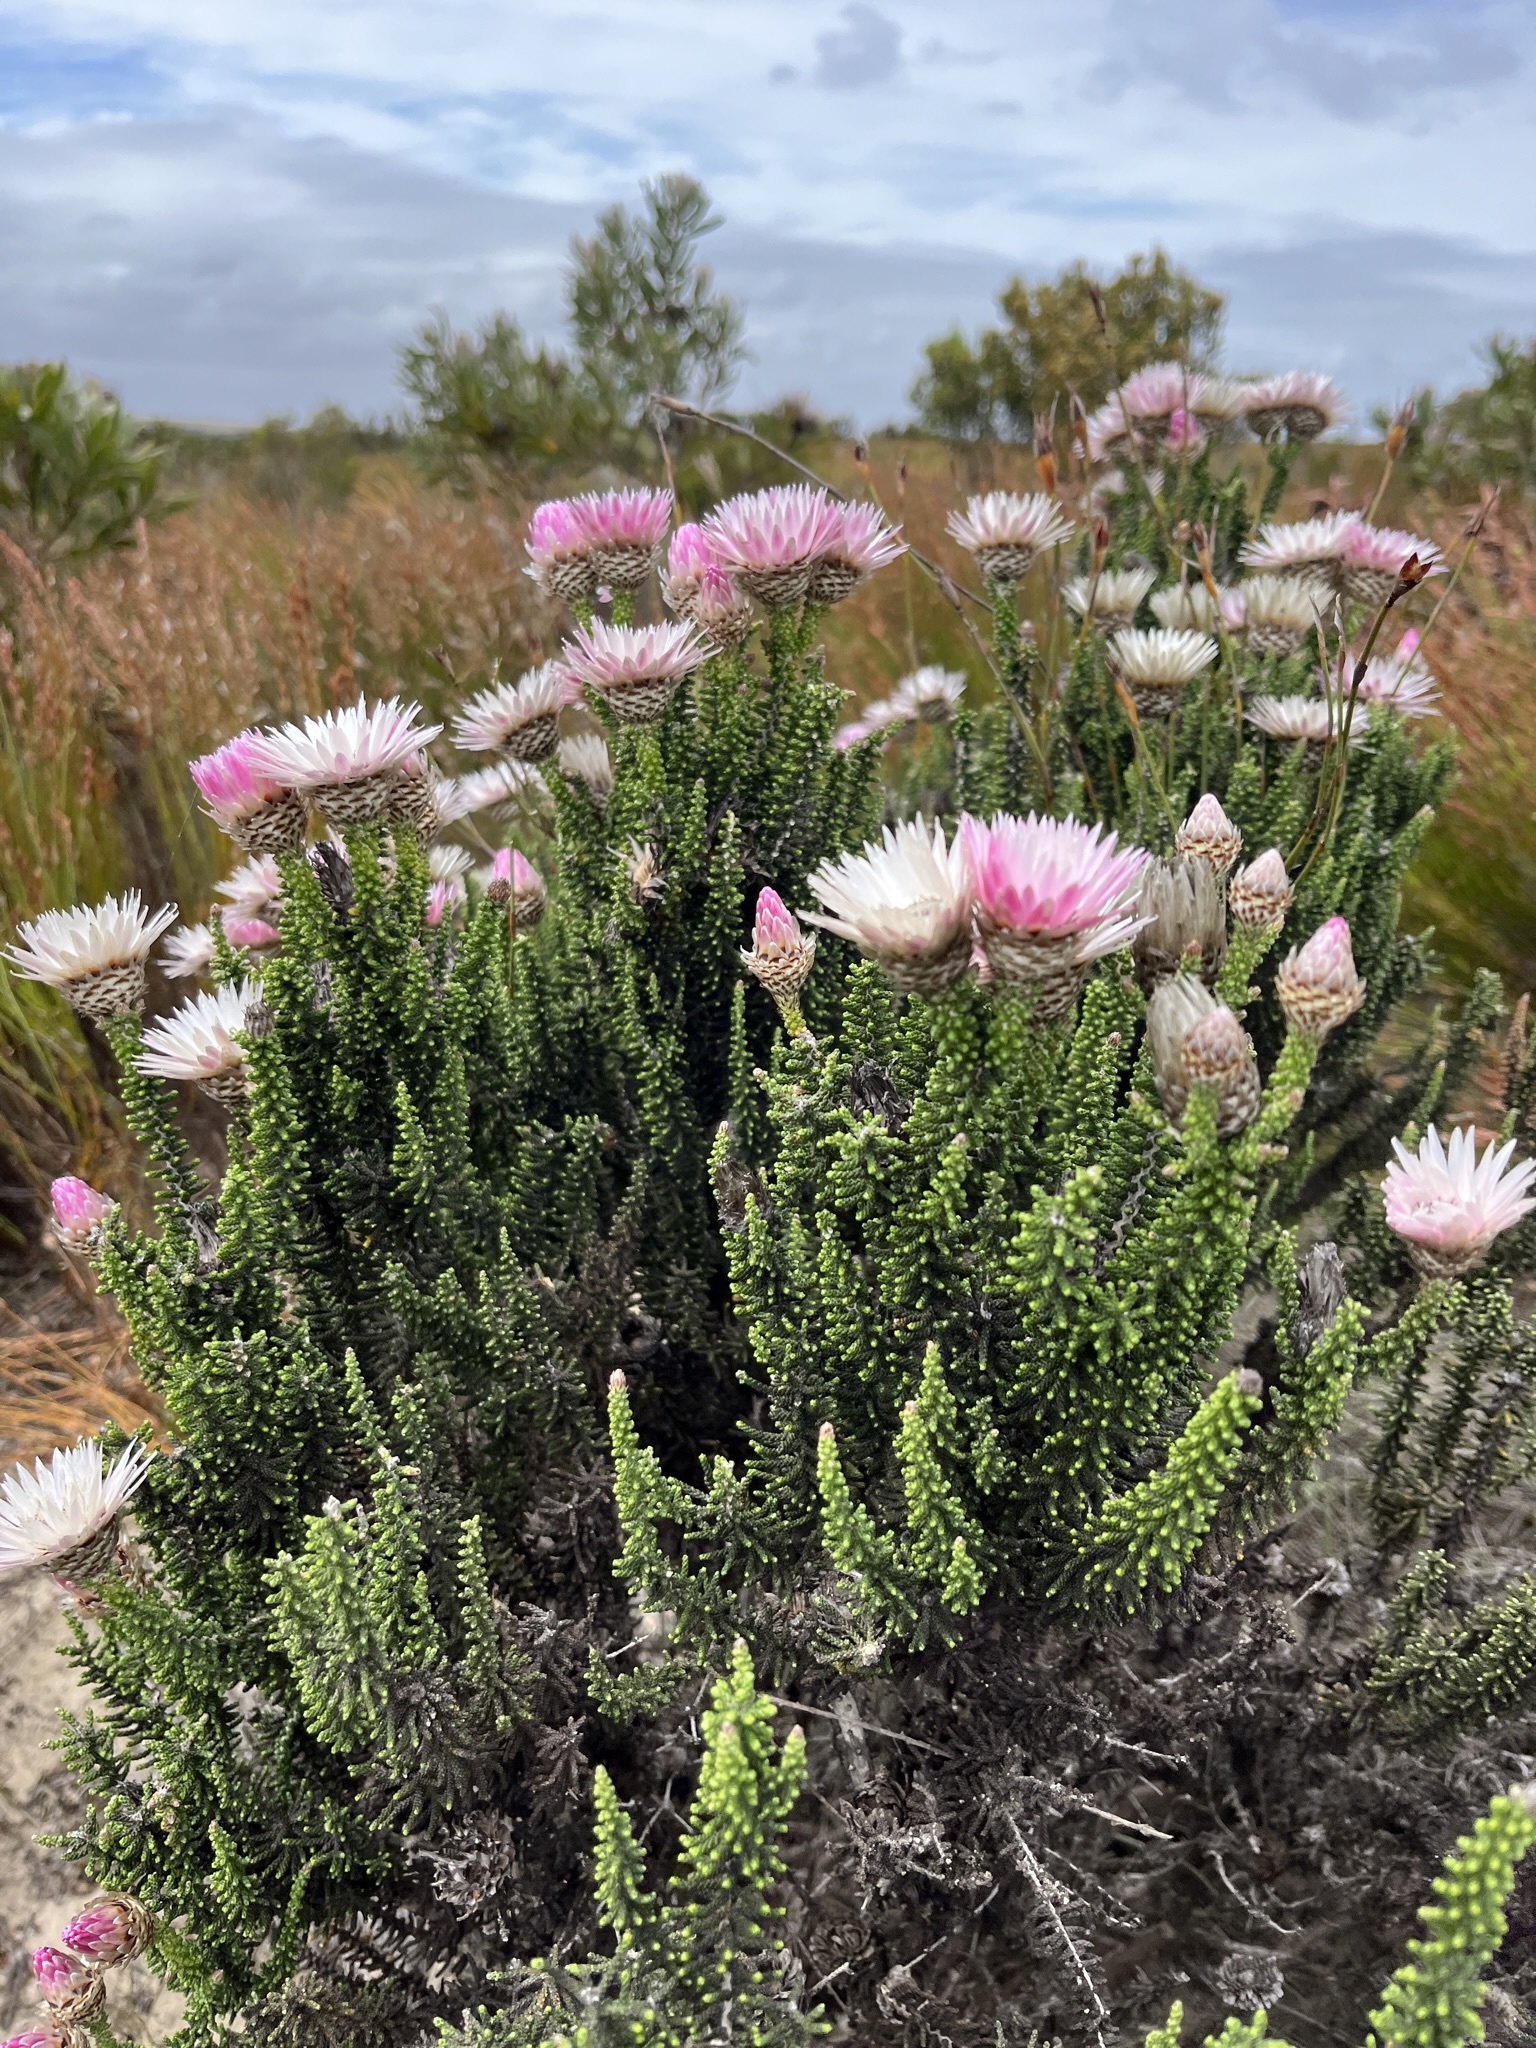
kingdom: Plantae
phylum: Tracheophyta
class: Magnoliopsida
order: Asterales
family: Asteraceae
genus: Phaenocoma
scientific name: Phaenocoma prolifera
